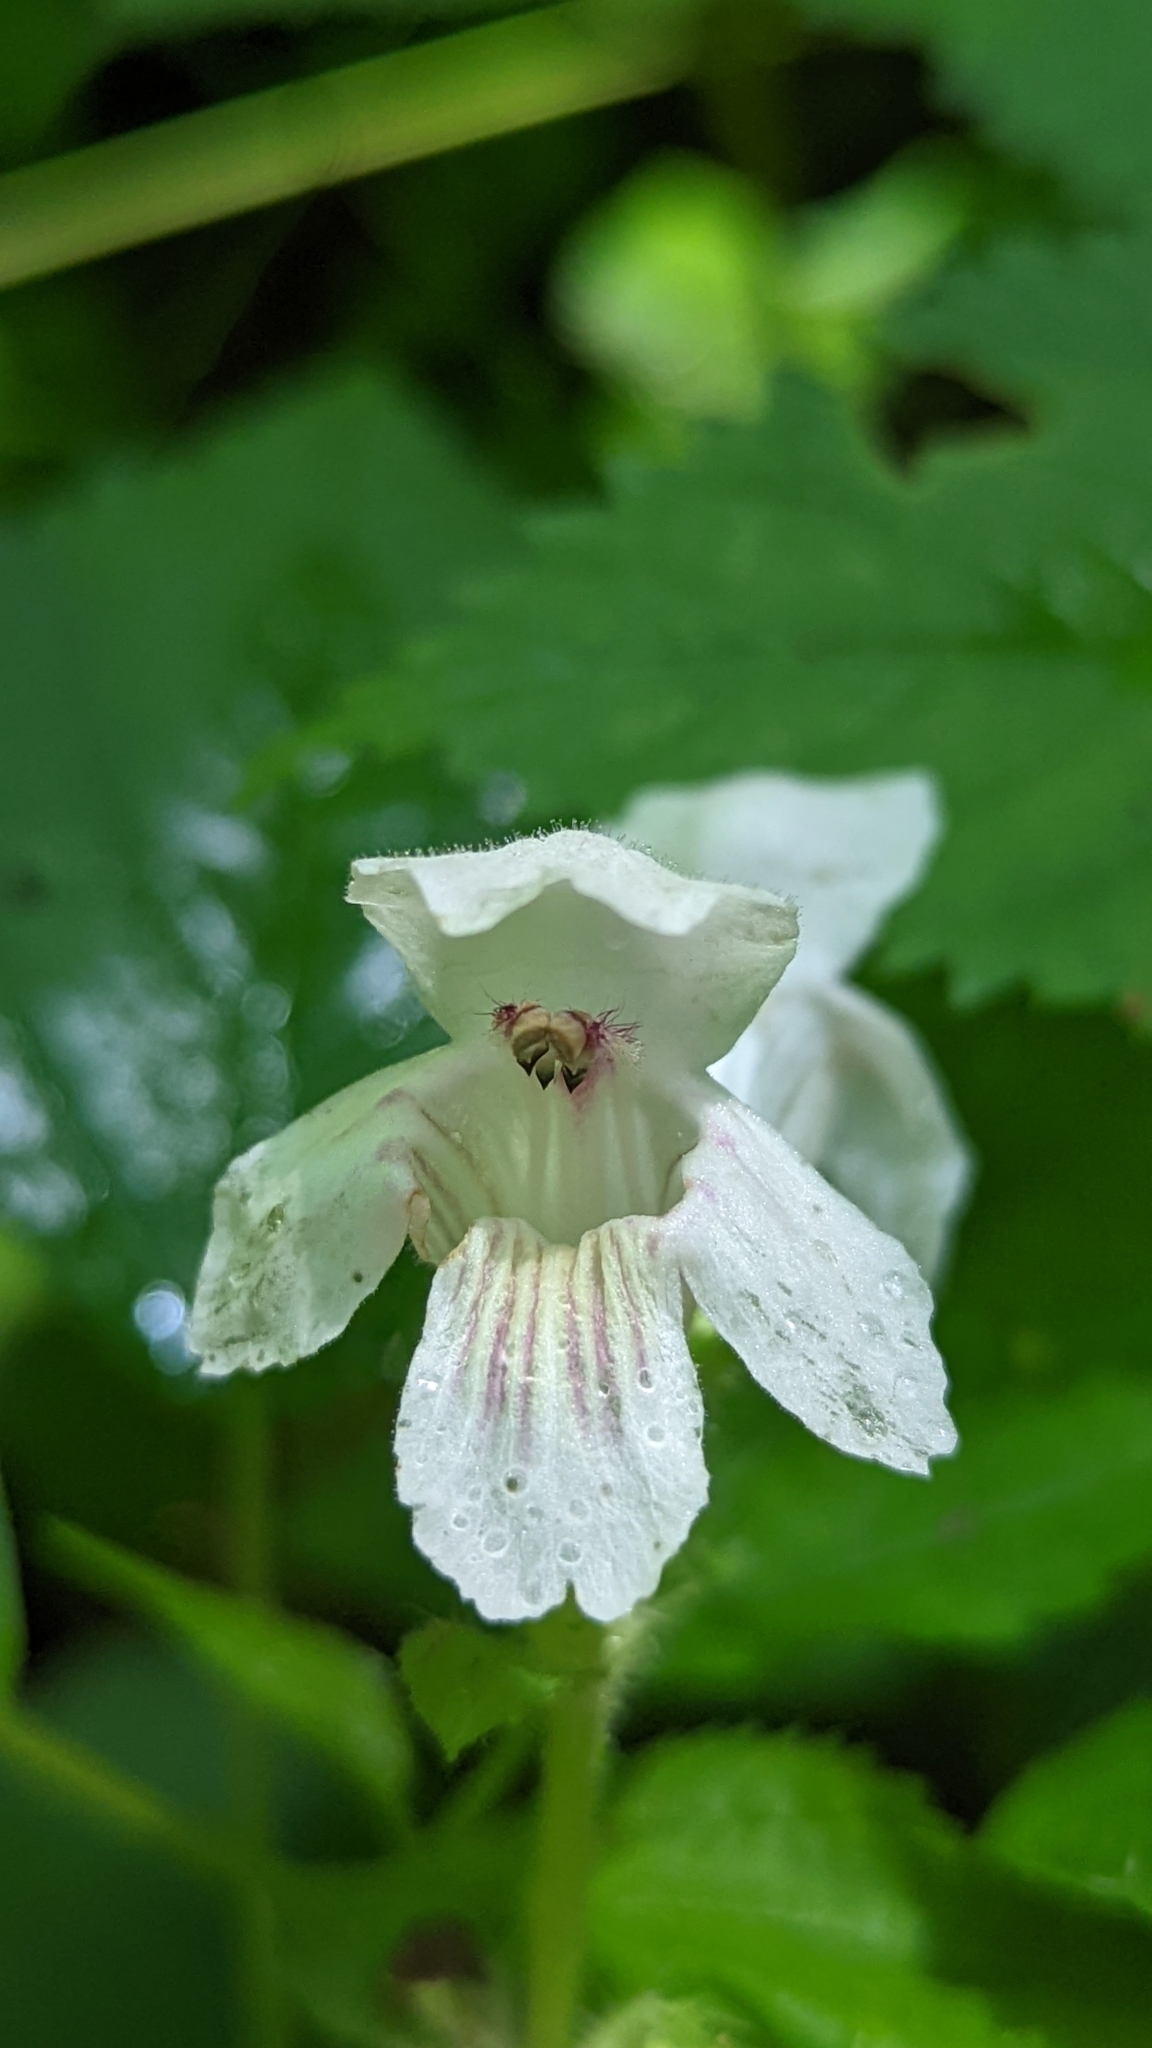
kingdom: Plantae
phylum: Tracheophyta
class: Magnoliopsida
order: Lamiales
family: Lamiaceae
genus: Synandra
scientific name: Synandra hispidula
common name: Synandra
